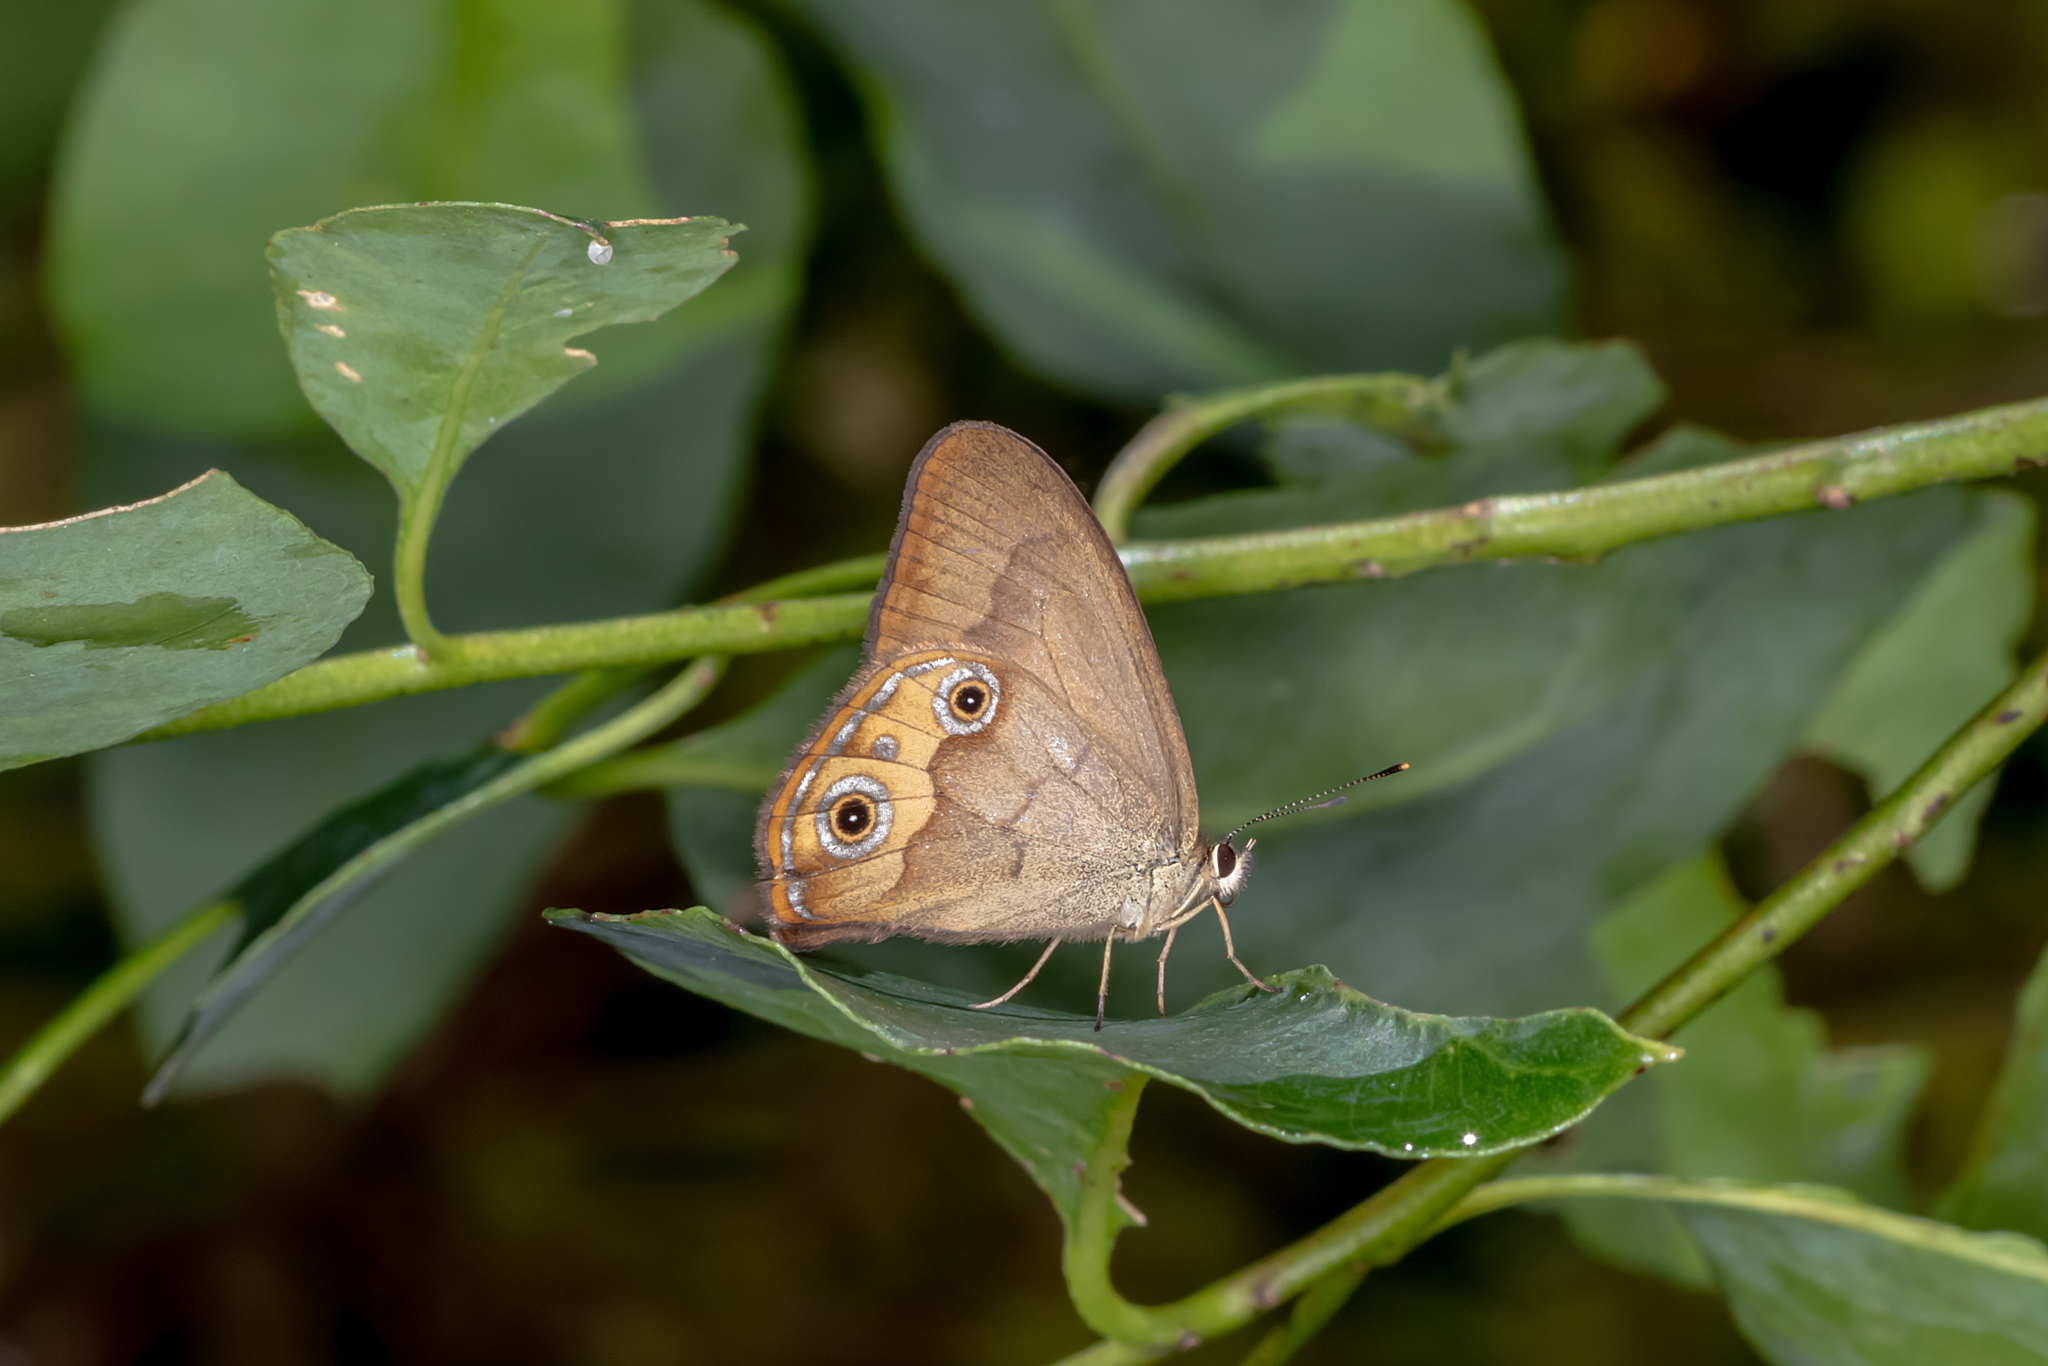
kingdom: Animalia
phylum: Arthropoda
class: Insecta
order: Lepidoptera
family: Nymphalidae
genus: Hypocysta
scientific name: Hypocysta metirius
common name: Brown ringlet
